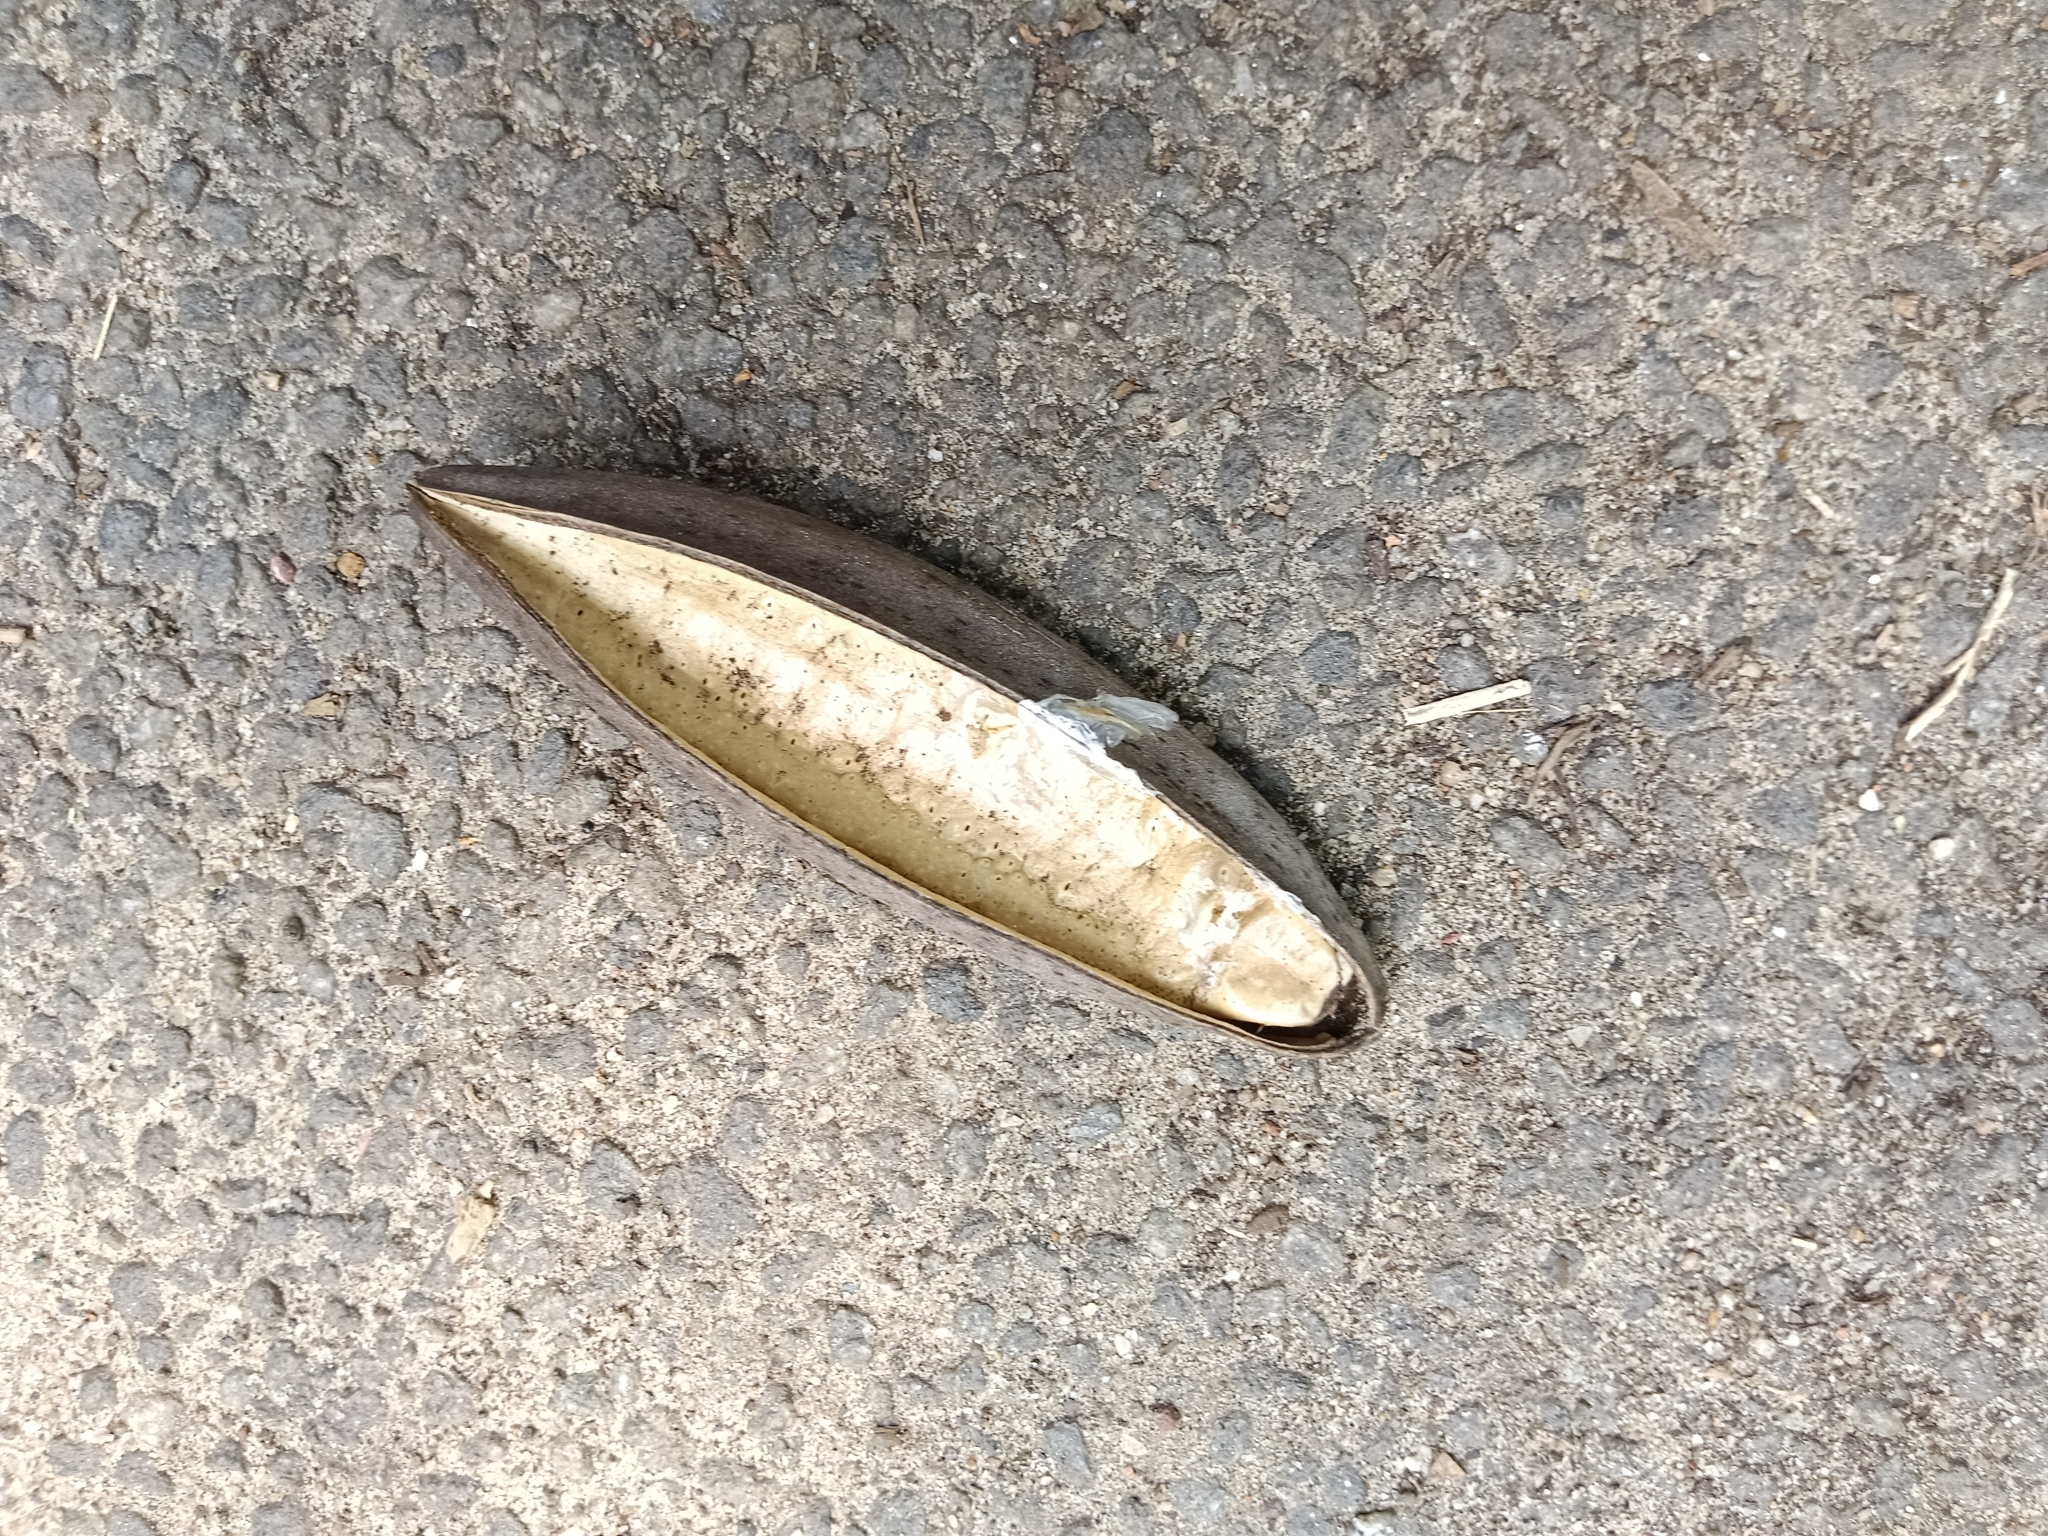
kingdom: Plantae
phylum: Tracheophyta
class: Magnoliopsida
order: Lamiales
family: Bignoniaceae
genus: Spathodea
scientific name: Spathodea campanulata
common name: African tuliptree
